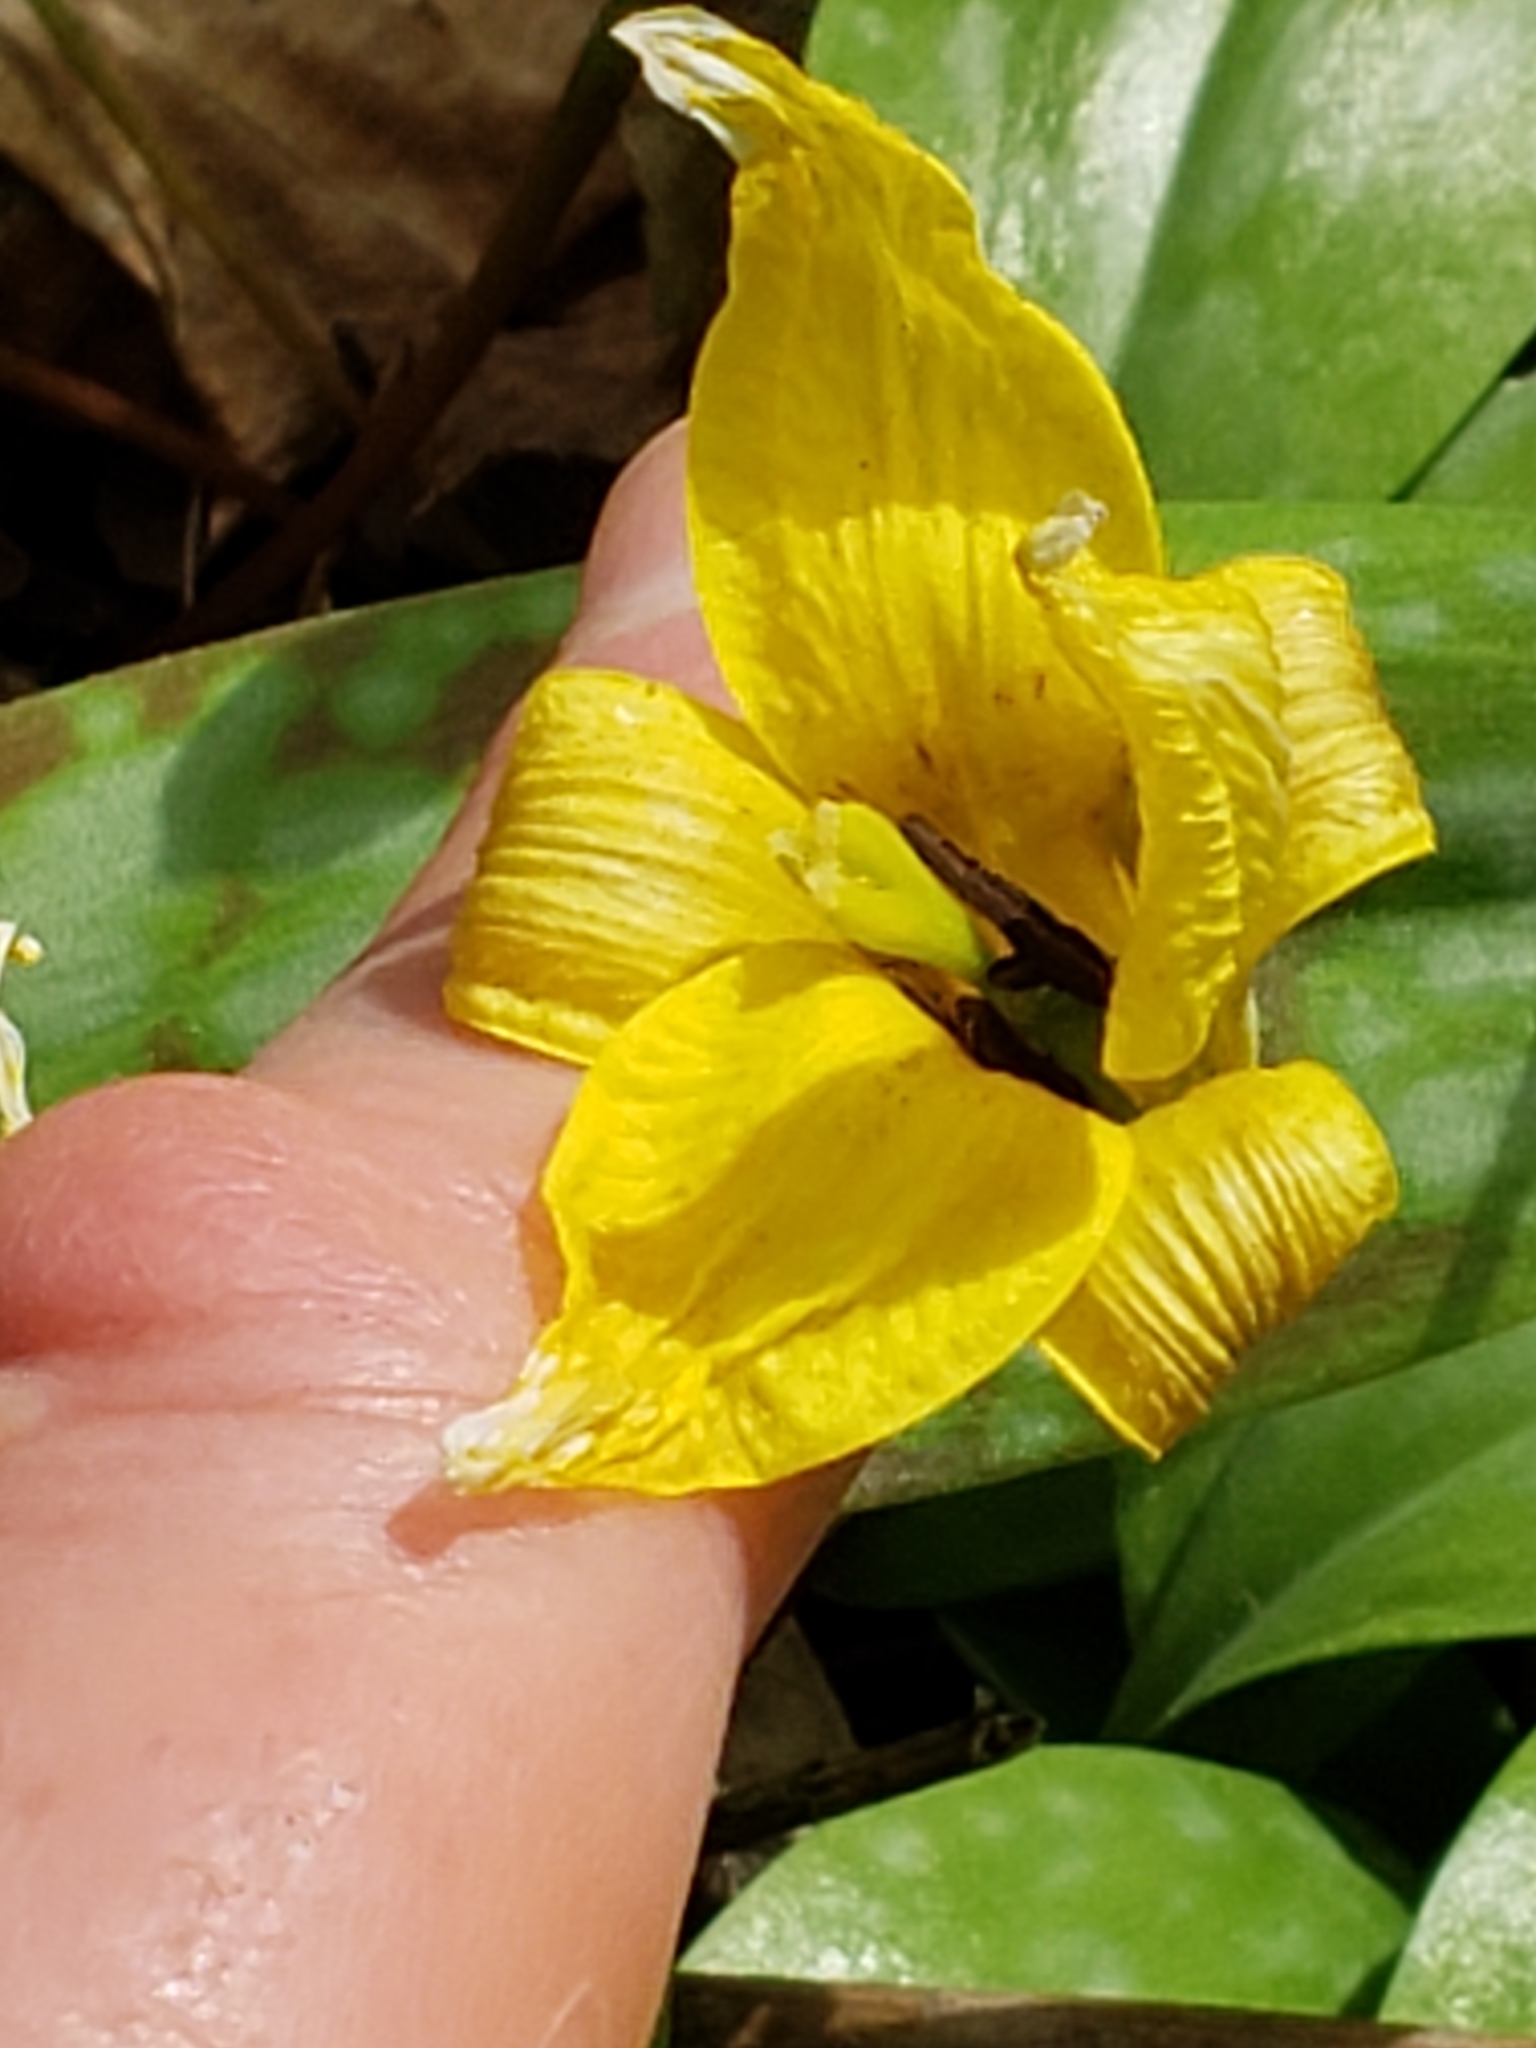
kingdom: Plantae
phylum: Tracheophyta
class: Liliopsida
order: Liliales
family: Liliaceae
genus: Erythronium
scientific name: Erythronium americanum
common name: Yellow adder's-tongue
